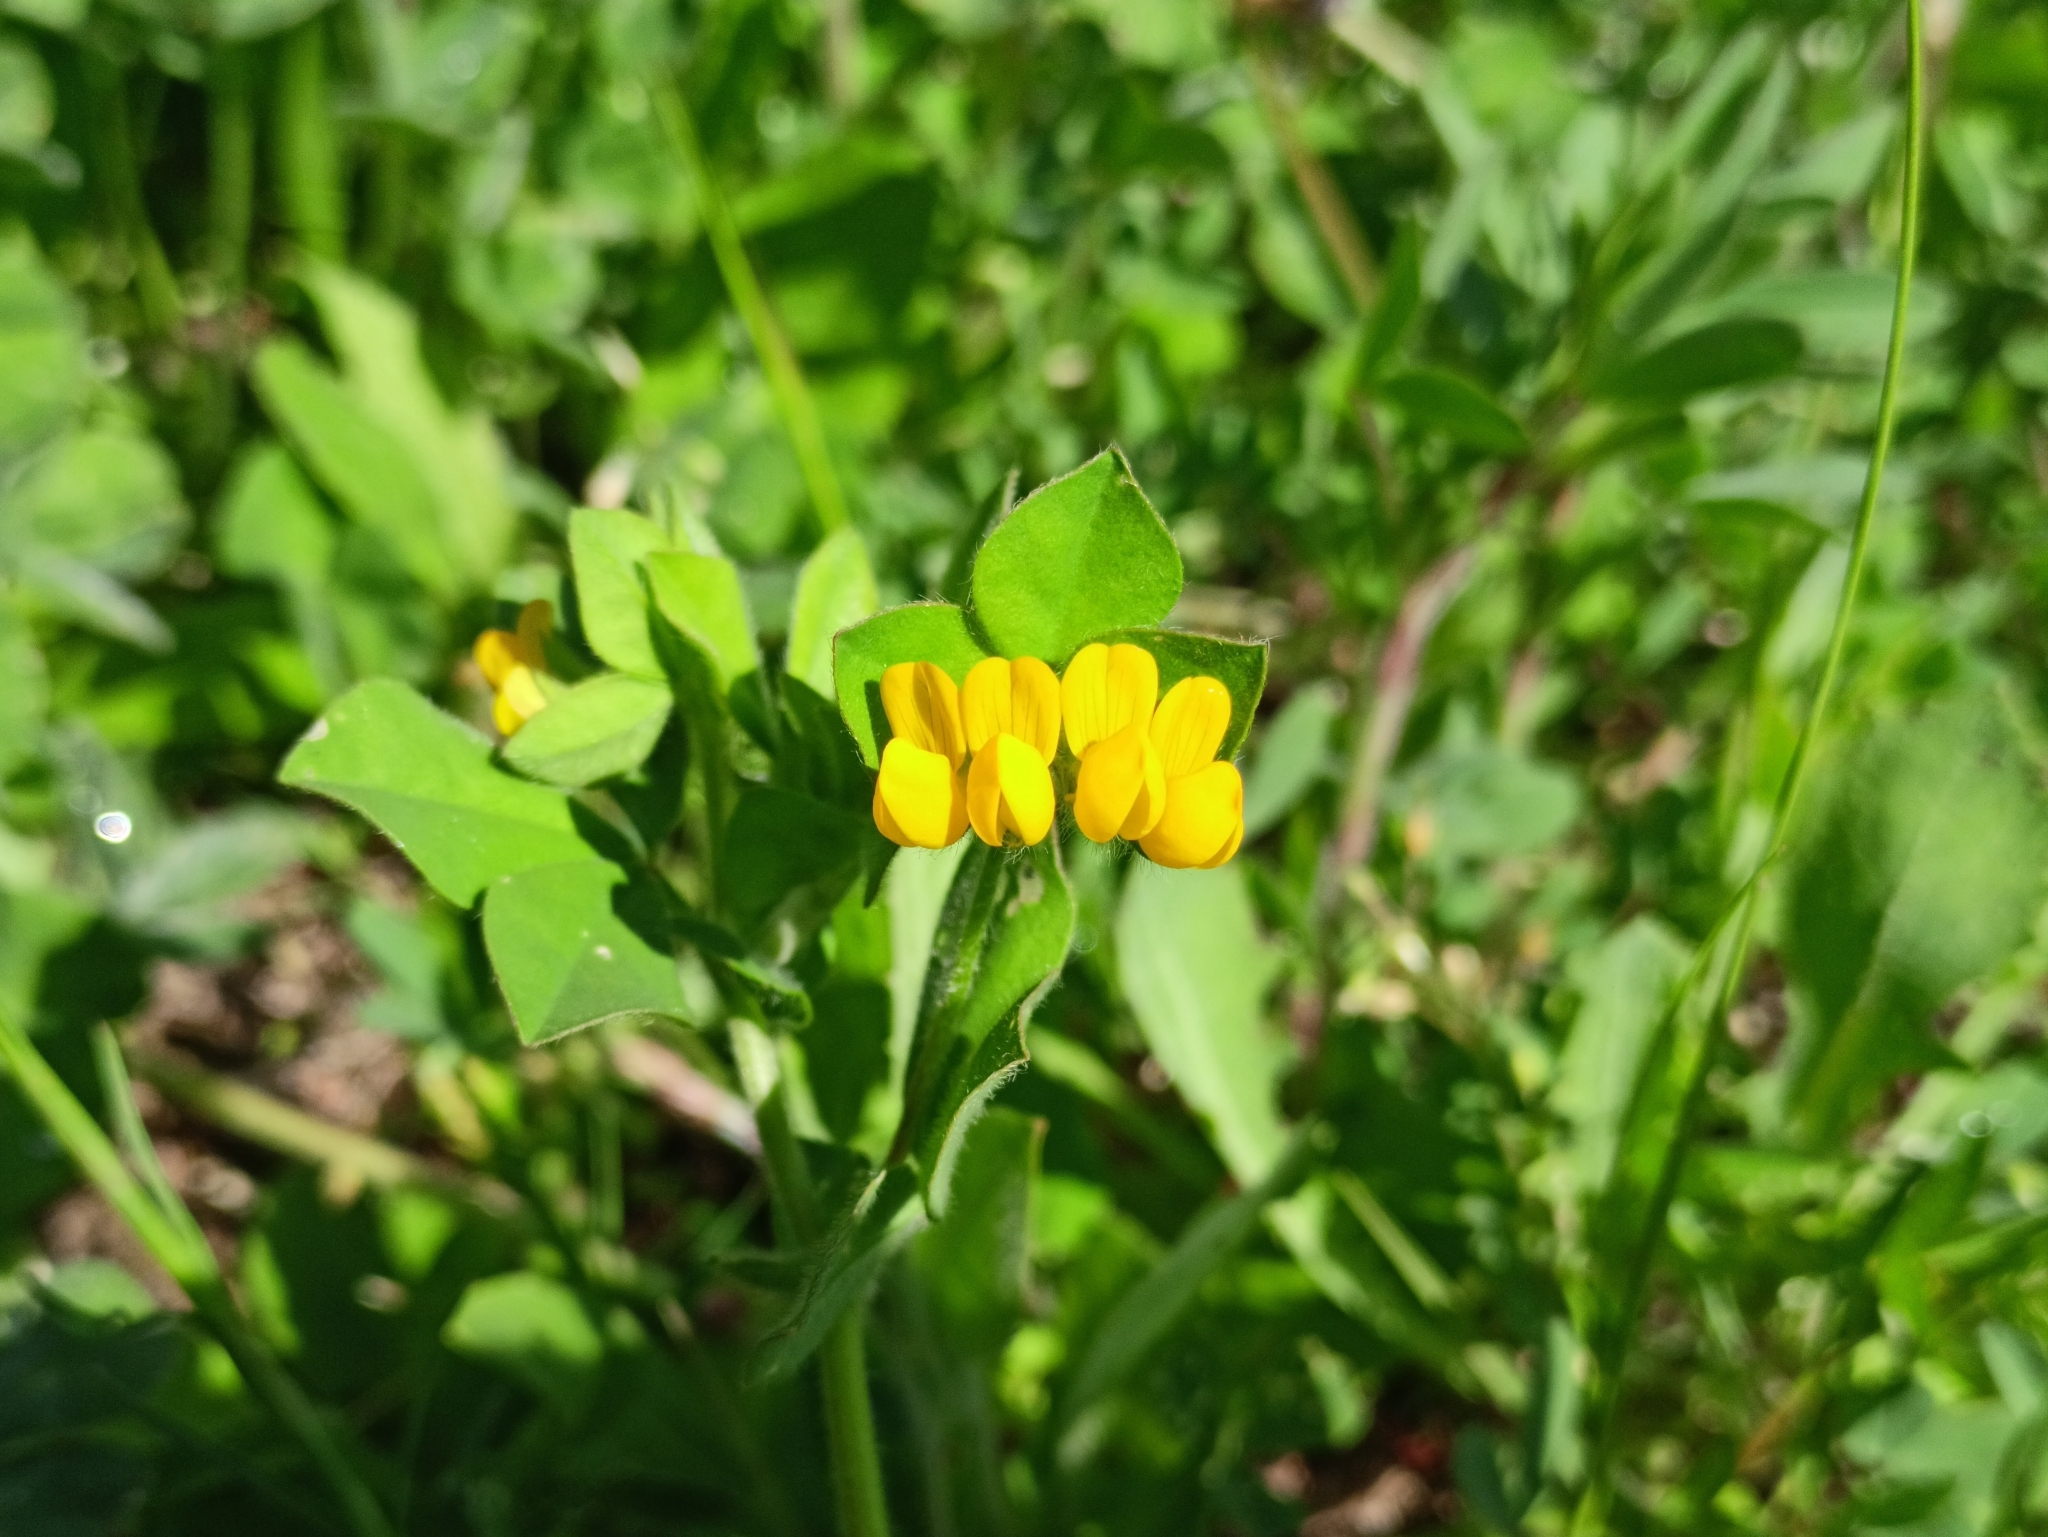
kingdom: Plantae
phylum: Tracheophyta
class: Magnoliopsida
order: Fabales
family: Fabaceae
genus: Lotus
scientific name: Lotus ornithopodioides
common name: Southern bird's-foot trefoil
